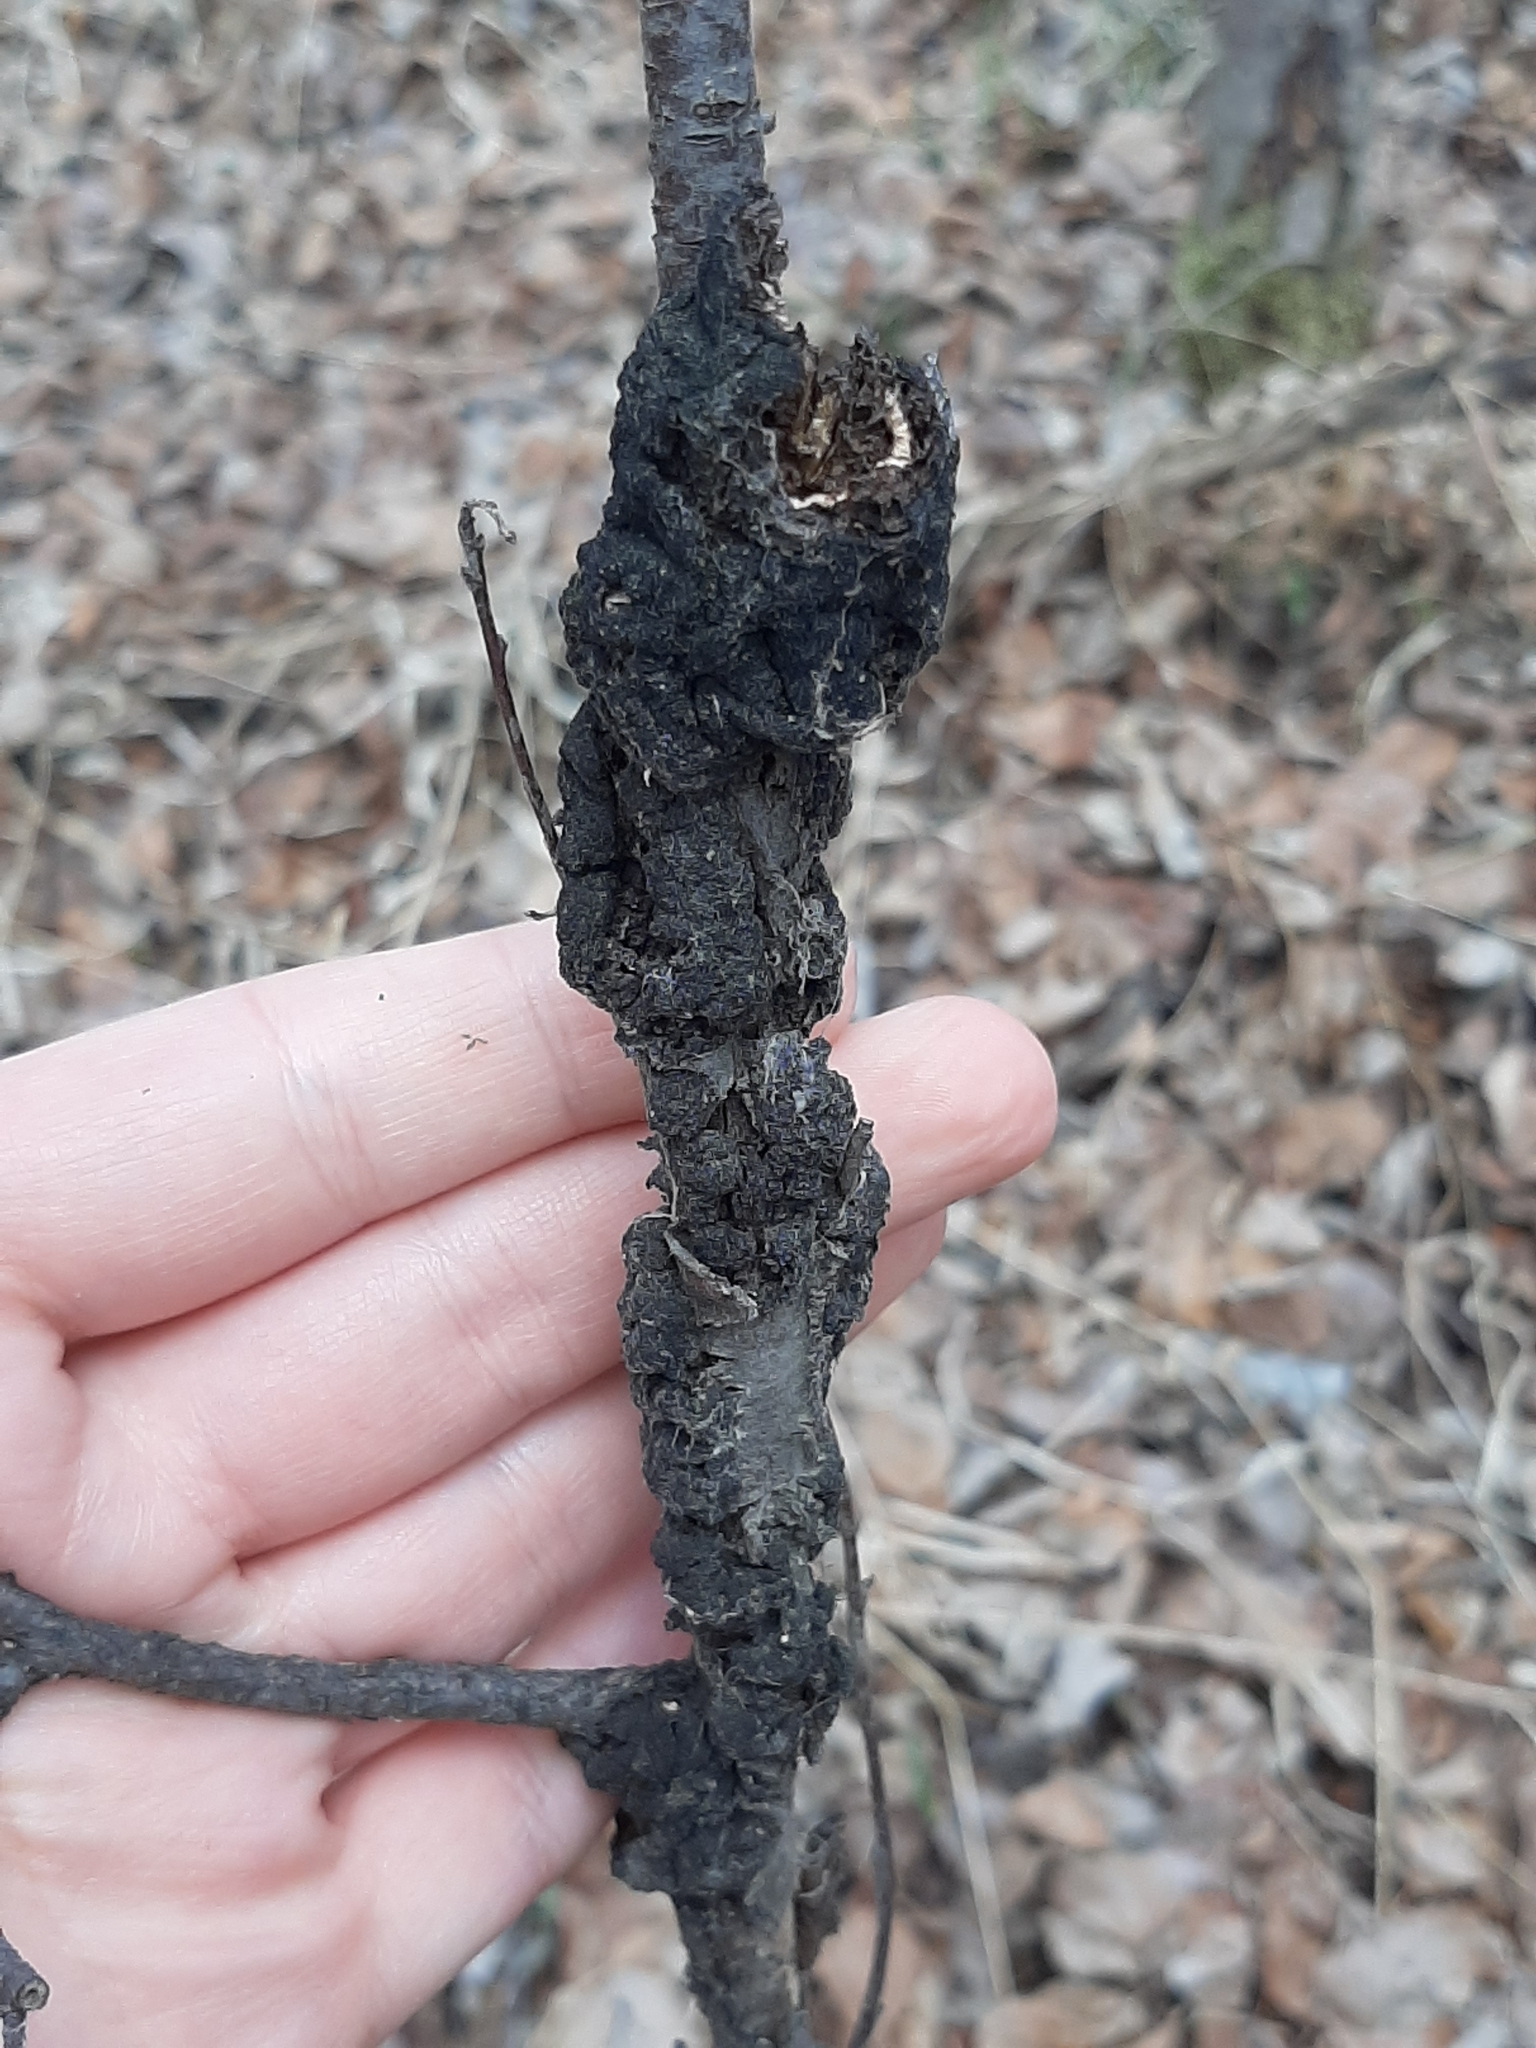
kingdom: Fungi
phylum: Ascomycota
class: Dothideomycetes
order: Venturiales
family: Venturiaceae
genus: Apiosporina
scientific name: Apiosporina morbosa
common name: Black knot
